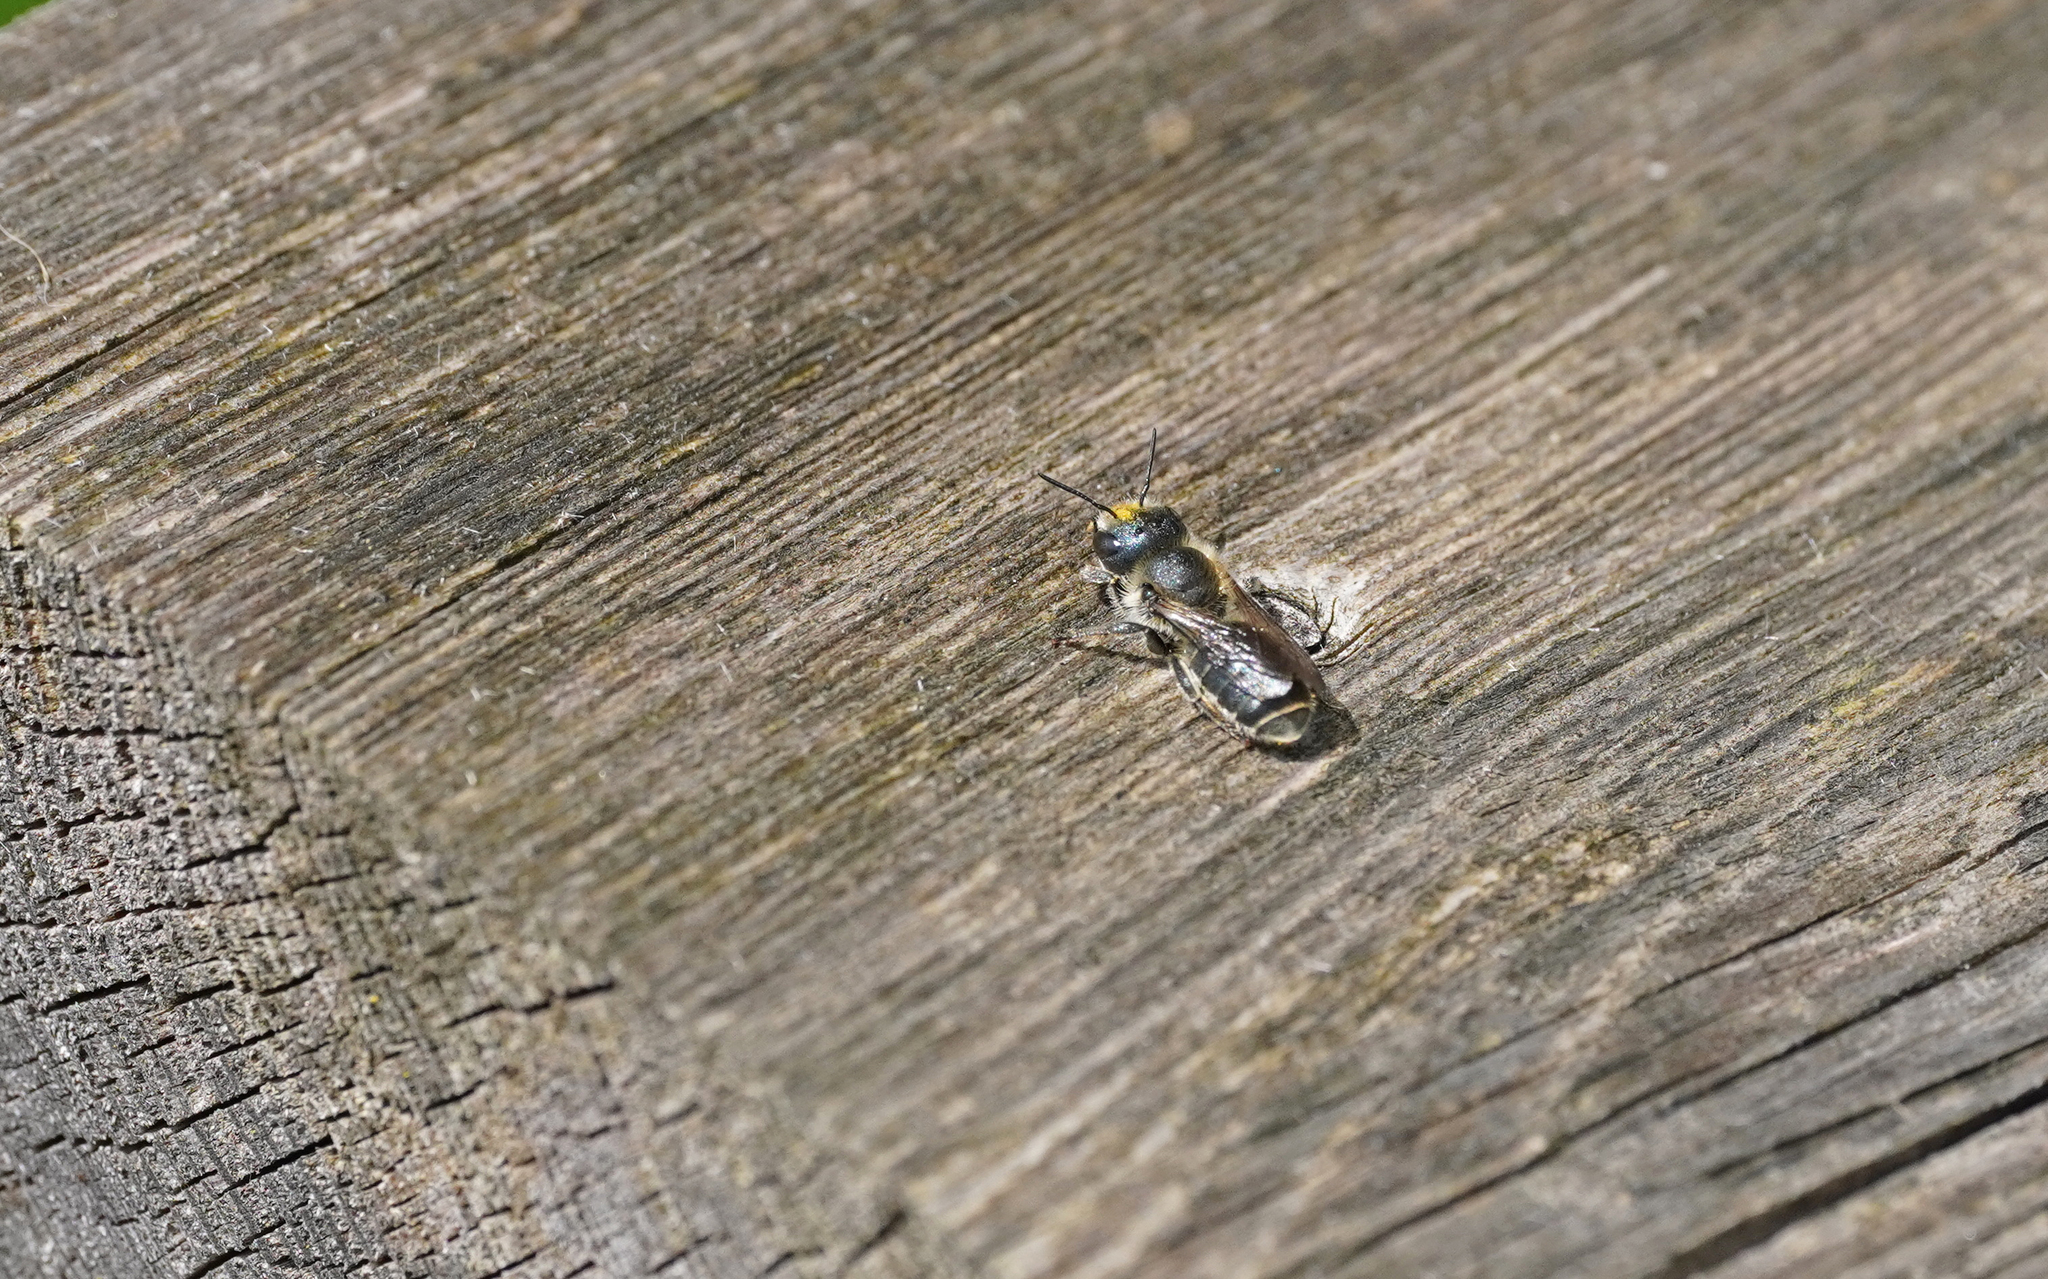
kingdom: Animalia
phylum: Arthropoda
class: Insecta
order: Hymenoptera
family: Megachilidae
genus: Osmia
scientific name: Osmia caerulescens
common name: Blue mason bee
